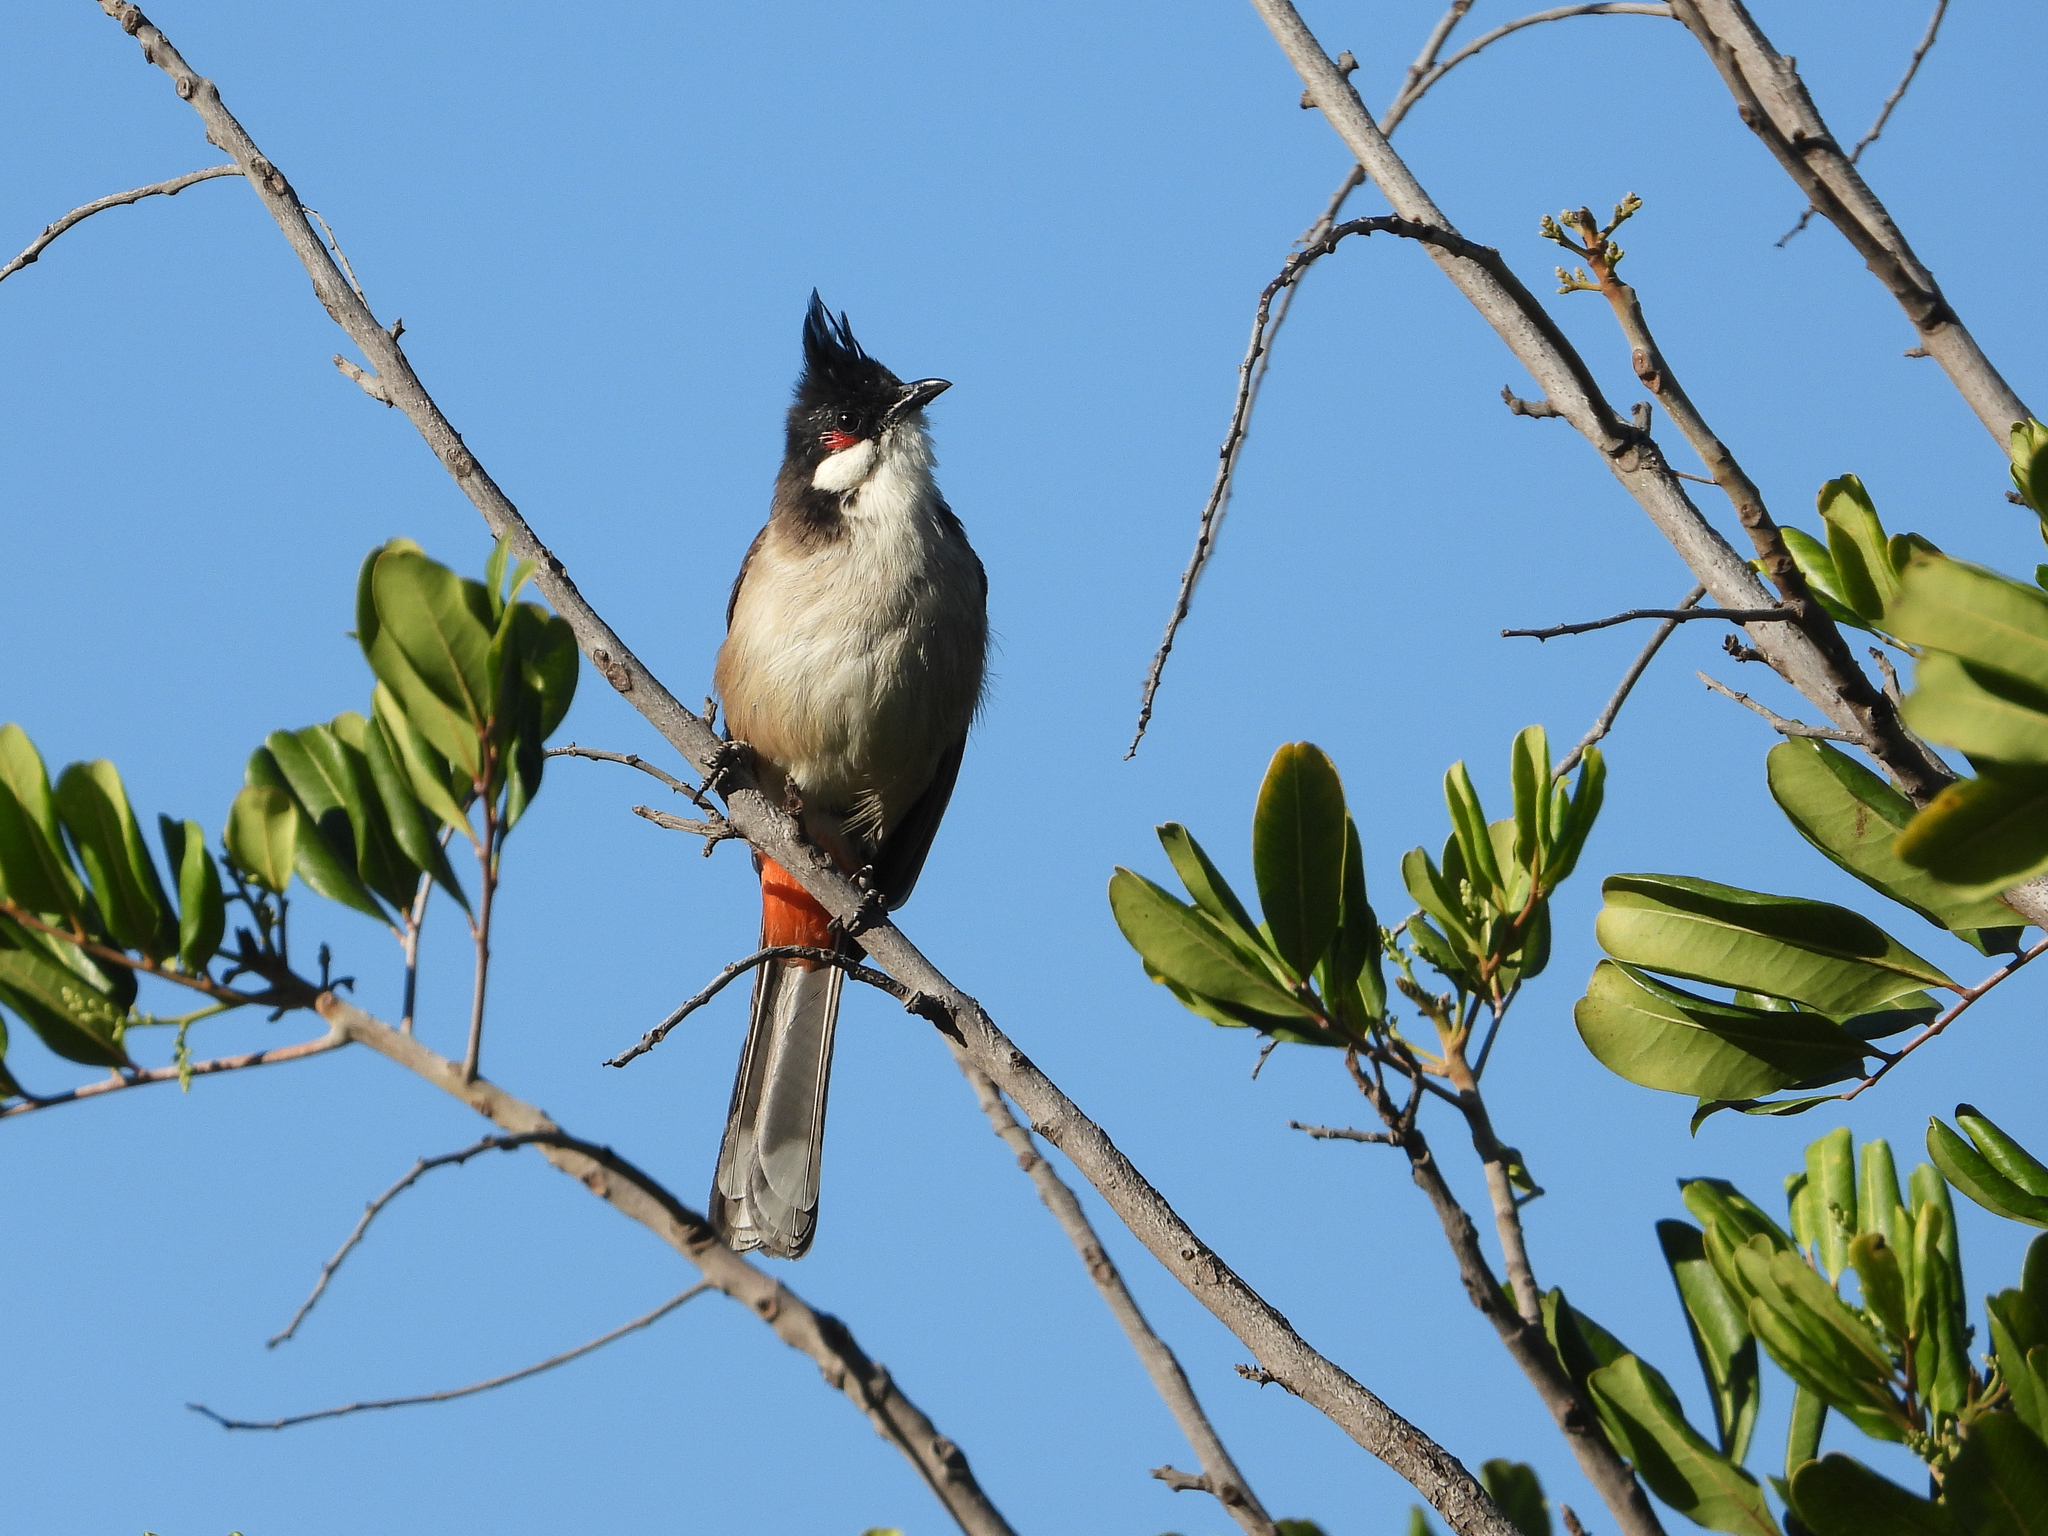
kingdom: Animalia
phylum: Chordata
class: Aves
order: Passeriformes
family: Pycnonotidae
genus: Pycnonotus
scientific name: Pycnonotus jocosus
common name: Red-whiskered bulbul
